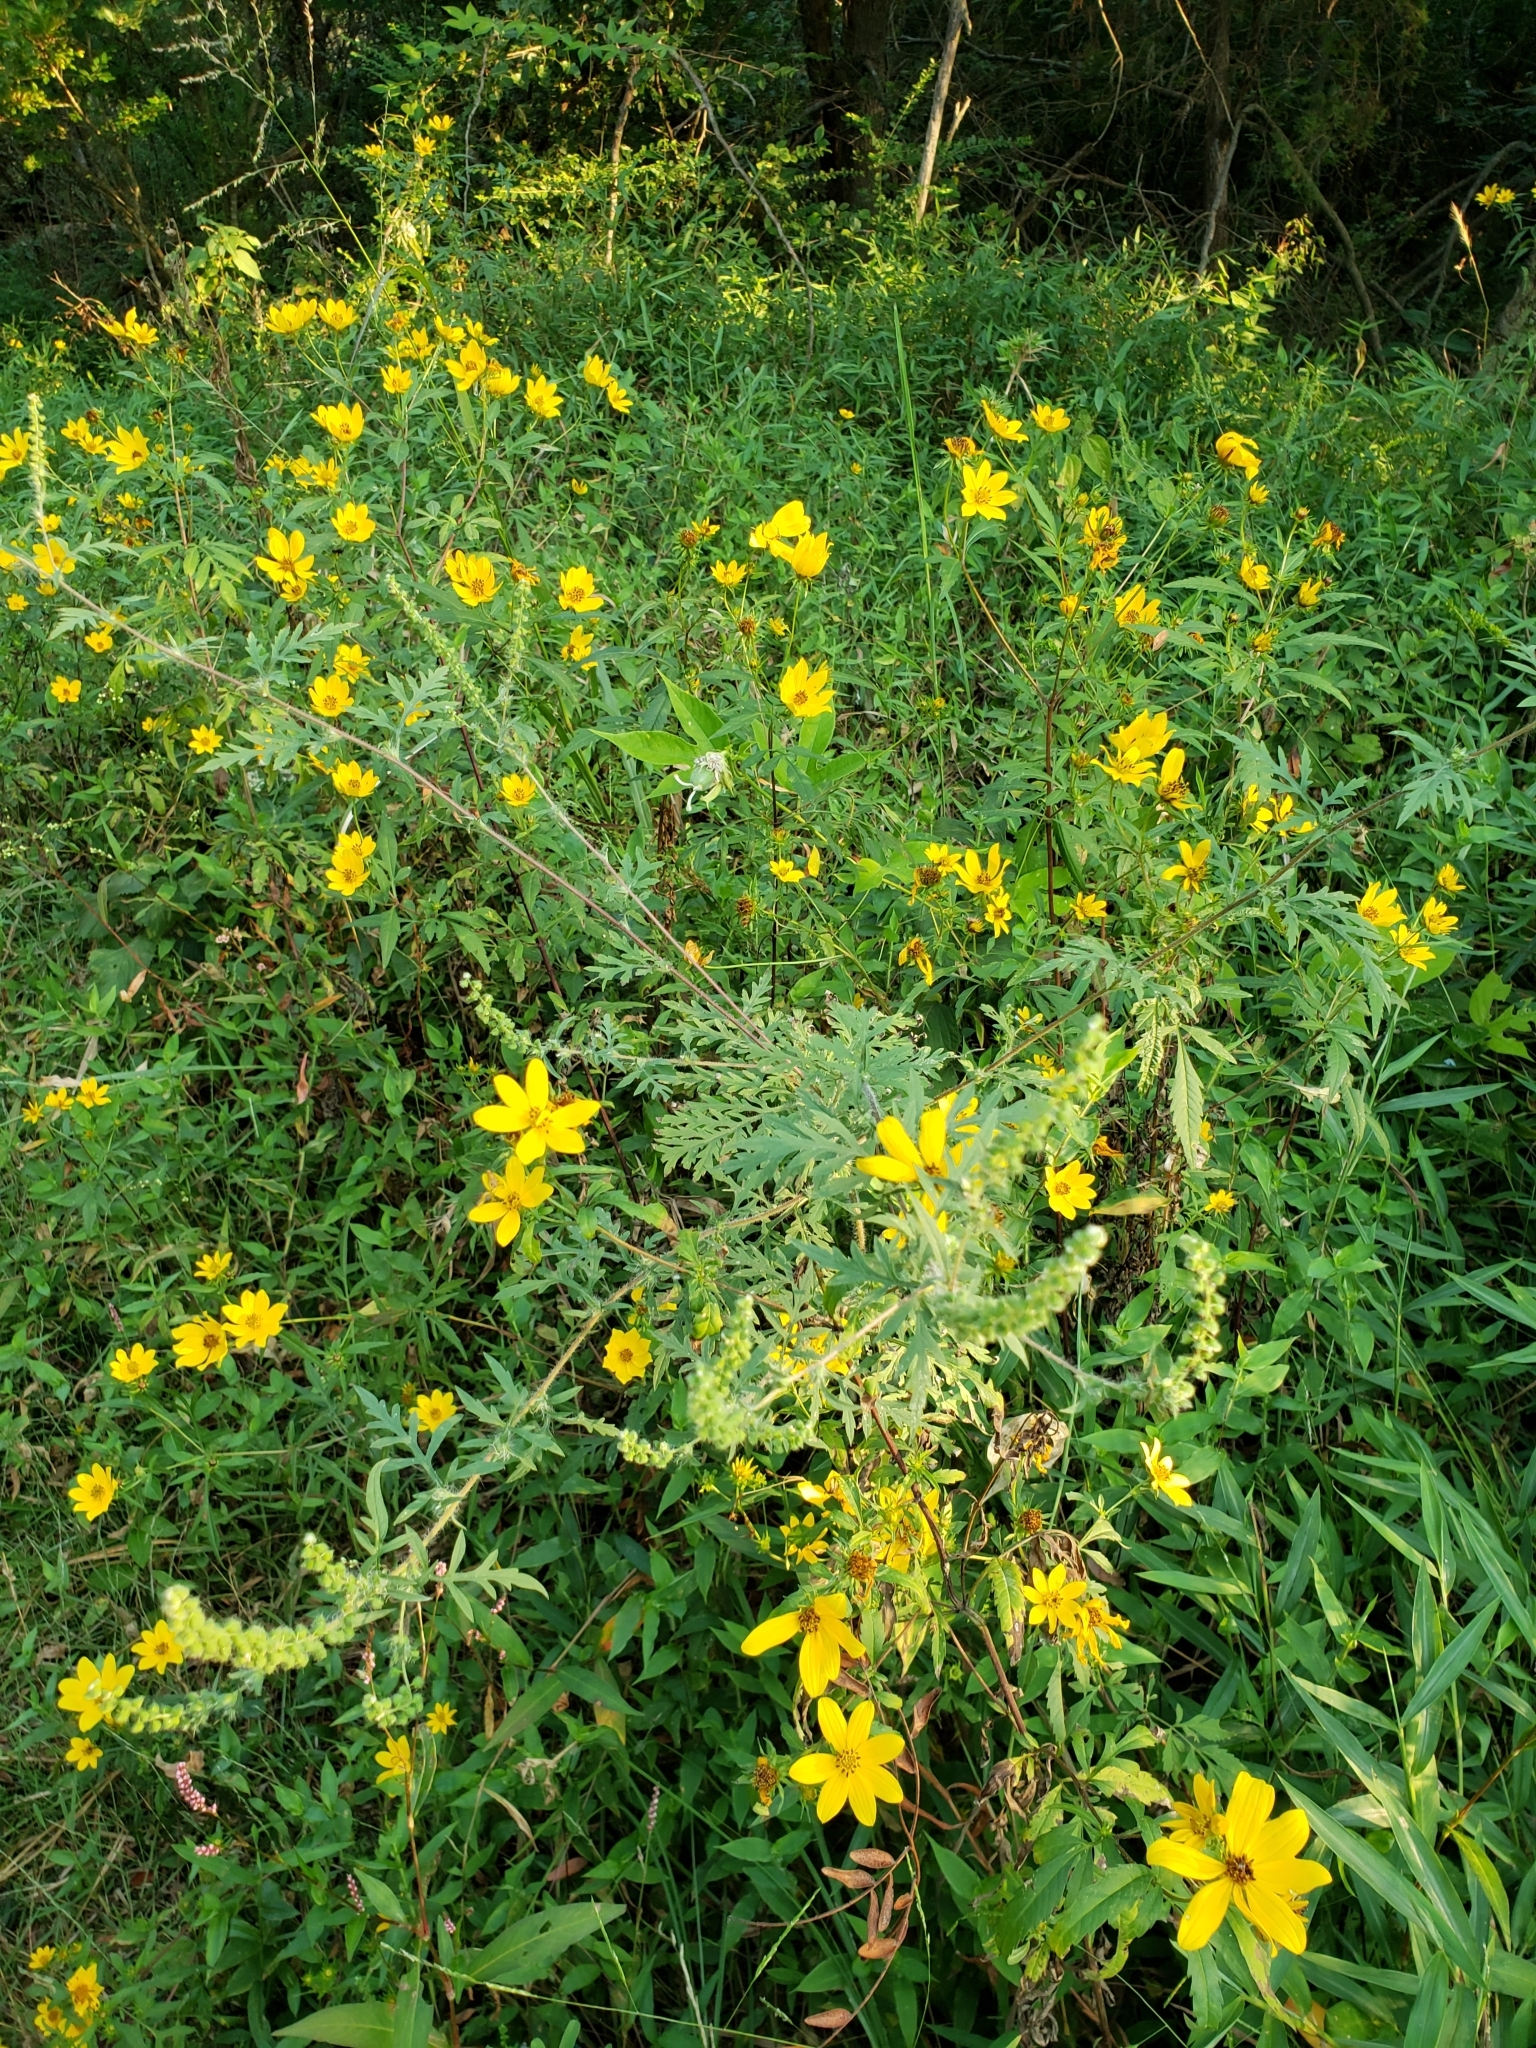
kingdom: Plantae
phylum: Tracheophyta
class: Magnoliopsida
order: Asterales
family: Asteraceae
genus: Bidens
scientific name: Bidens aristosa
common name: Western tickseed
